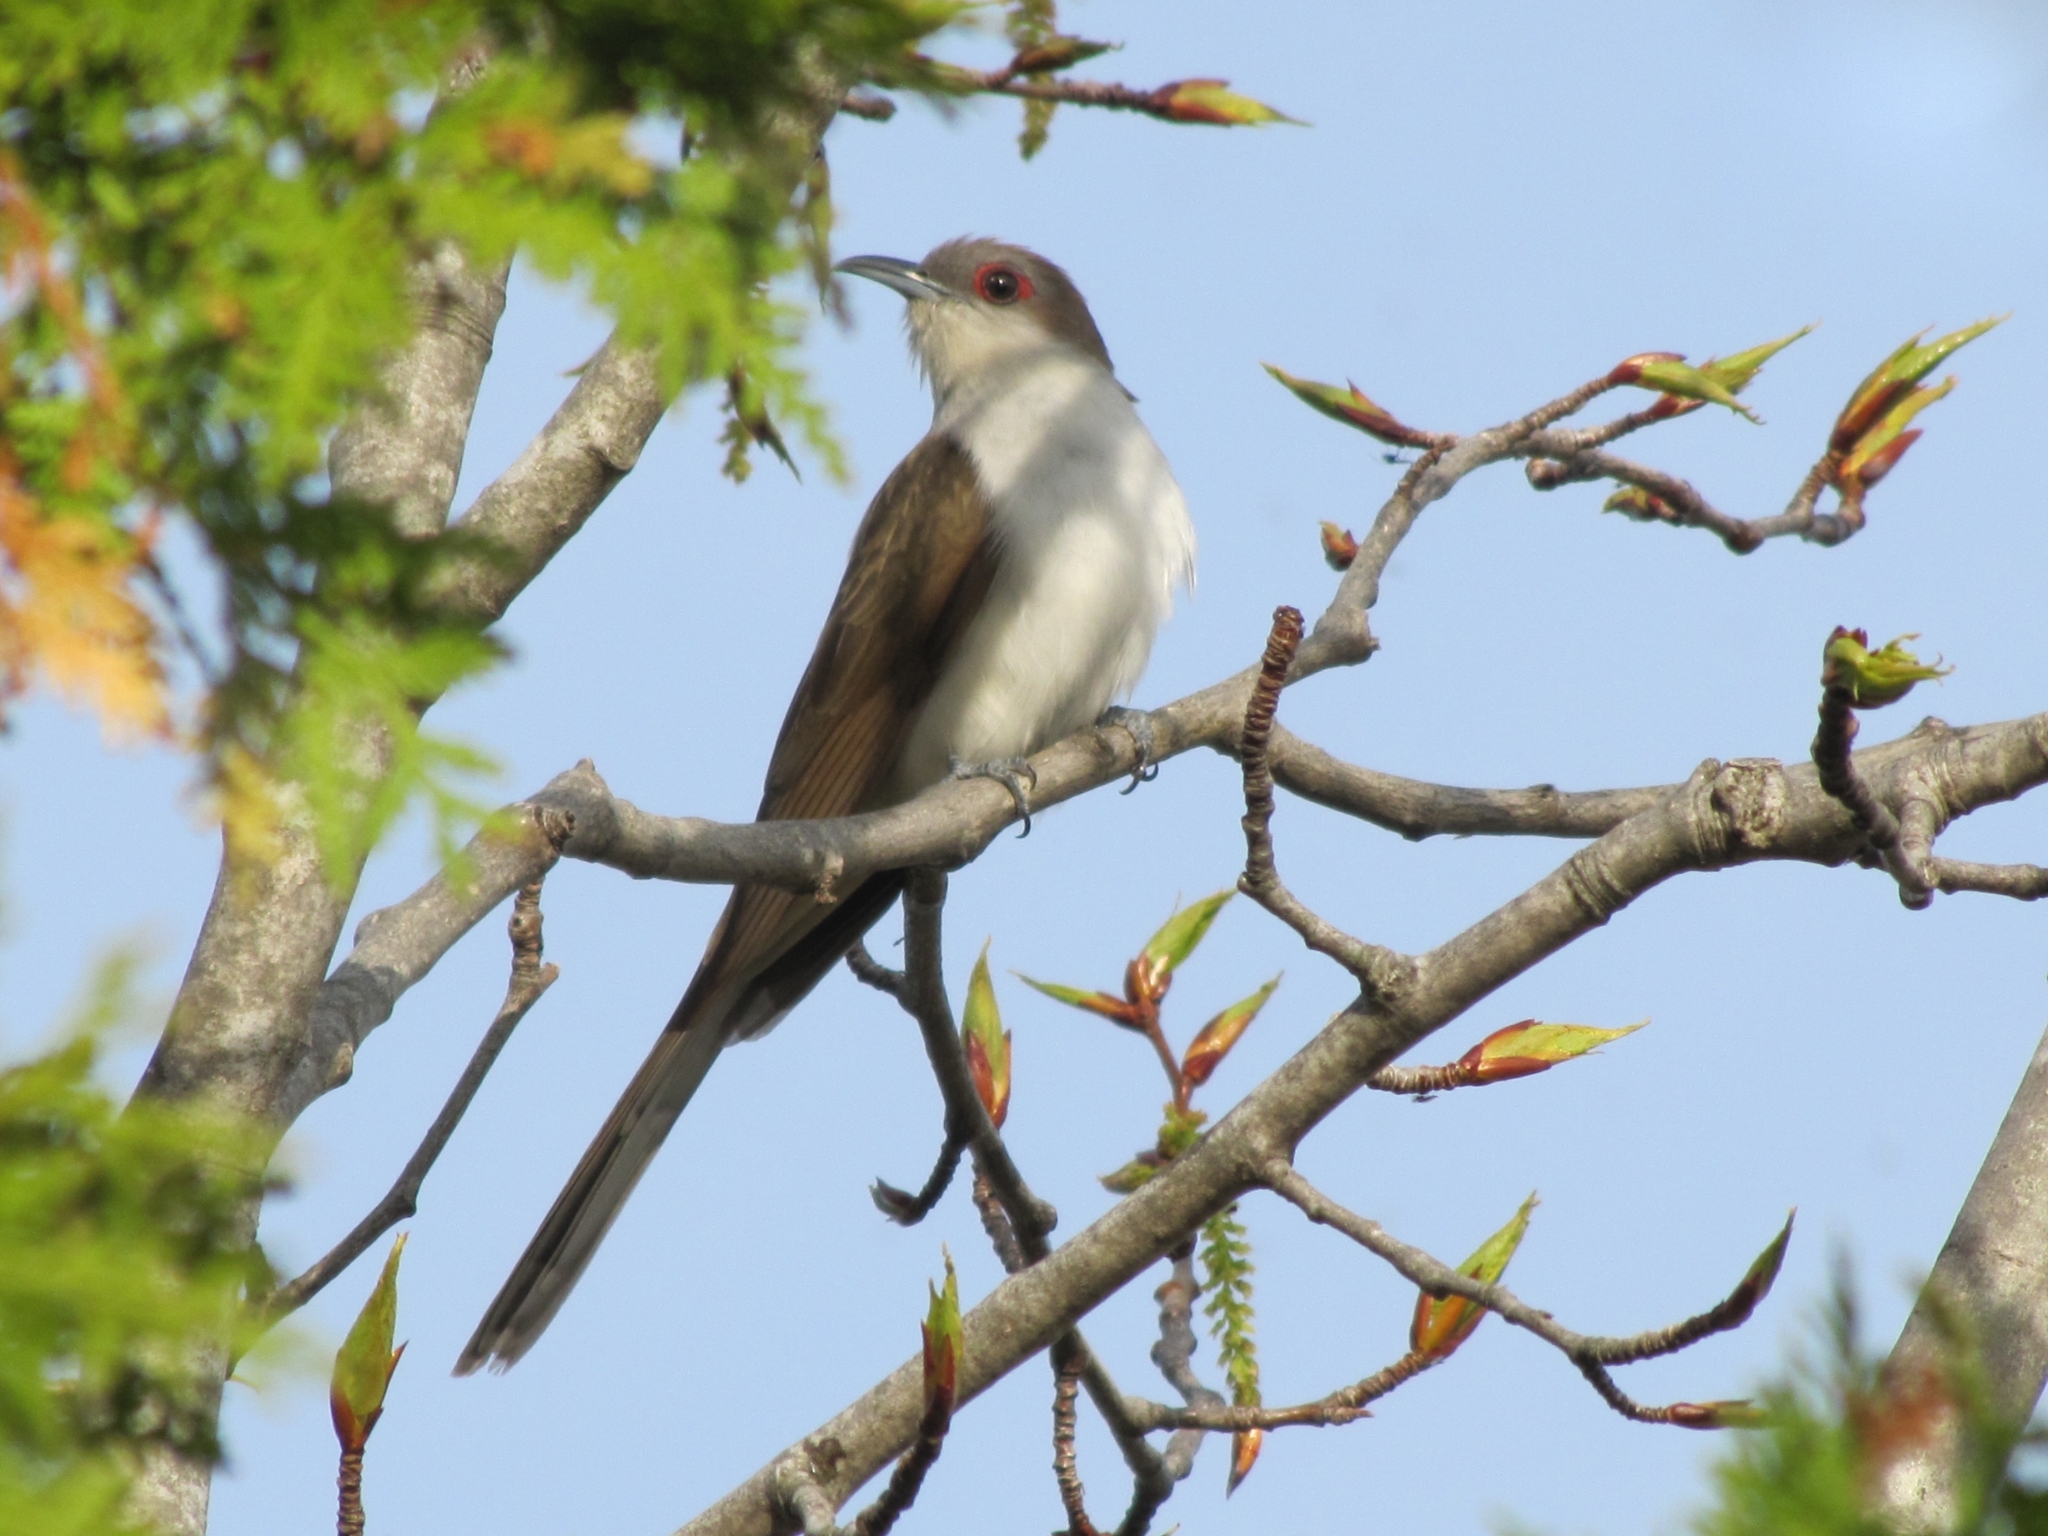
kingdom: Animalia
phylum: Chordata
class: Aves
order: Cuculiformes
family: Cuculidae
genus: Coccyzus
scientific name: Coccyzus erythropthalmus
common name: Black-billed cuckoo
